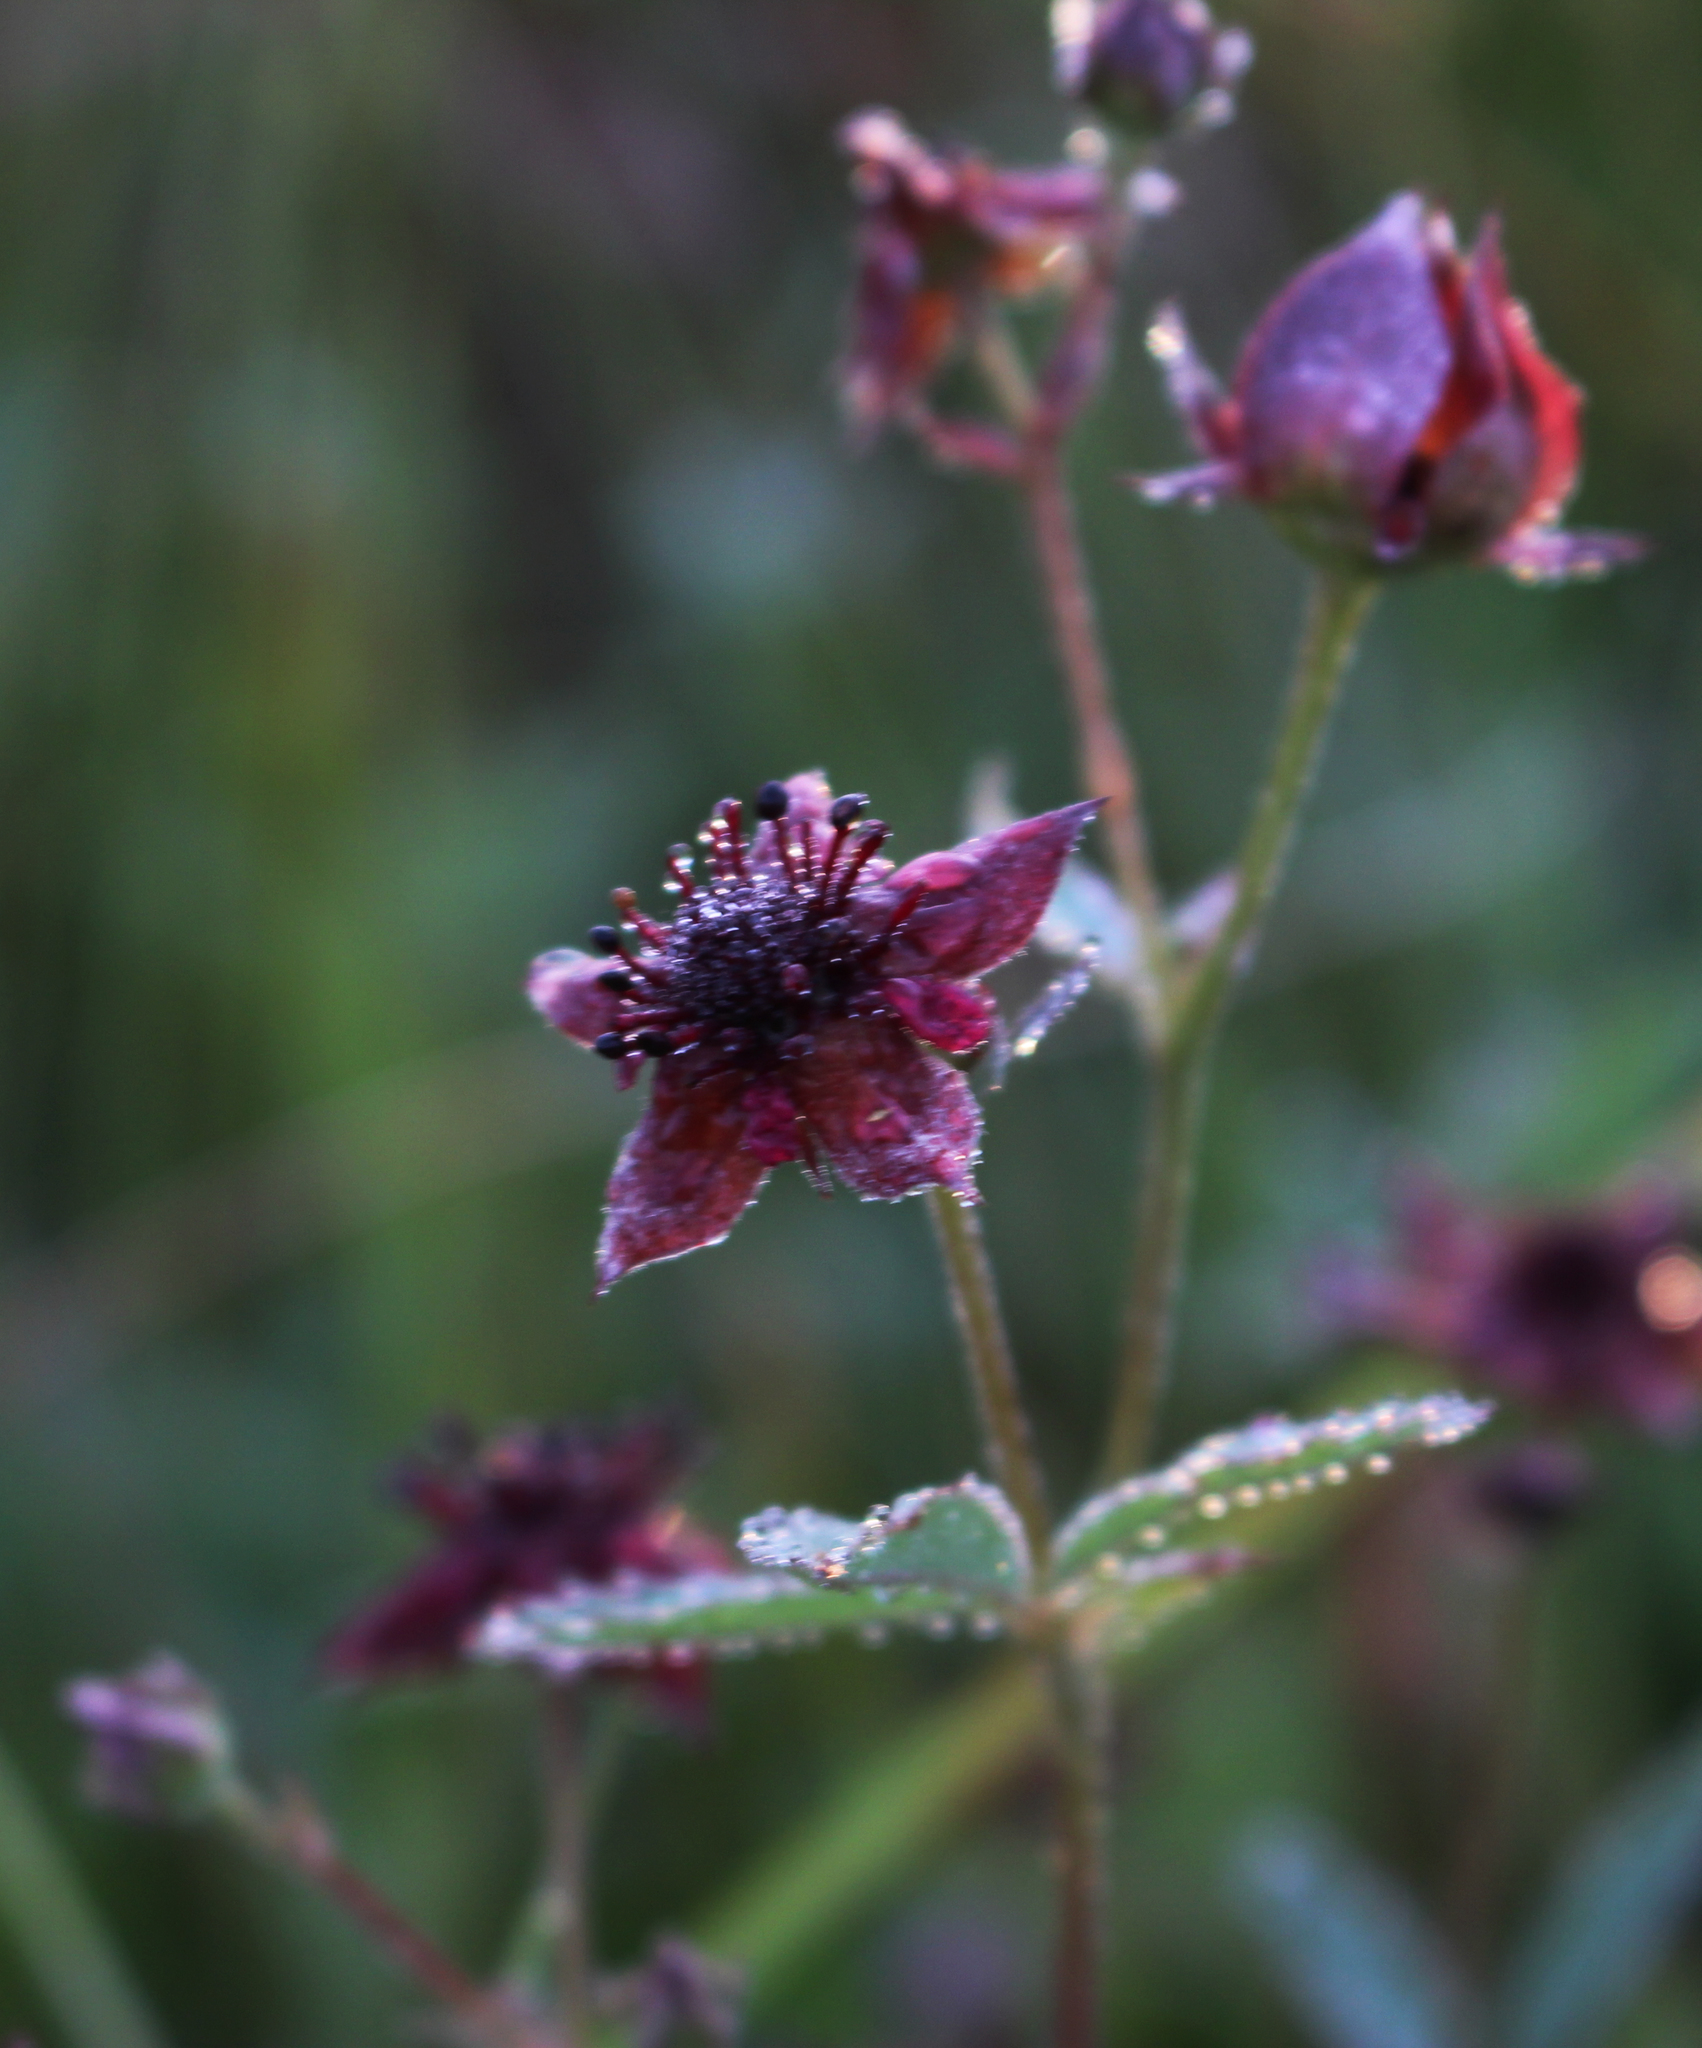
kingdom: Plantae
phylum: Tracheophyta
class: Magnoliopsida
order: Rosales
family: Rosaceae
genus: Comarum
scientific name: Comarum palustre
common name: Marsh cinquefoil
